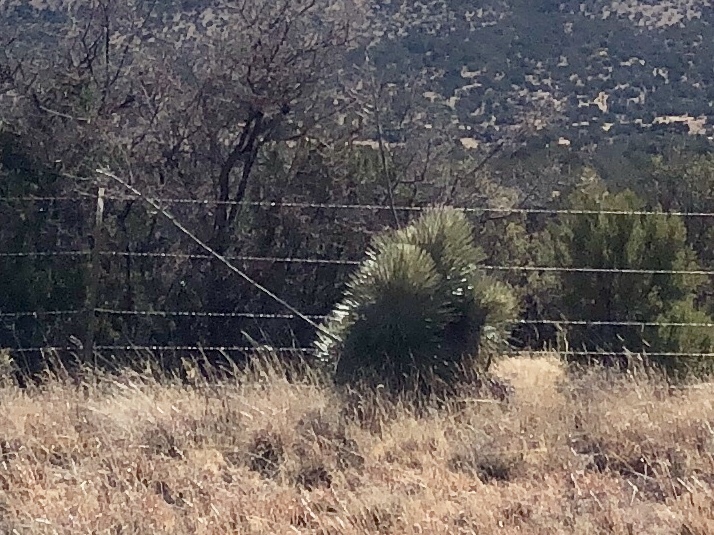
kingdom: Plantae
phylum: Tracheophyta
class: Liliopsida
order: Asparagales
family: Asparagaceae
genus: Yucca
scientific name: Yucca elata
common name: Palmella
